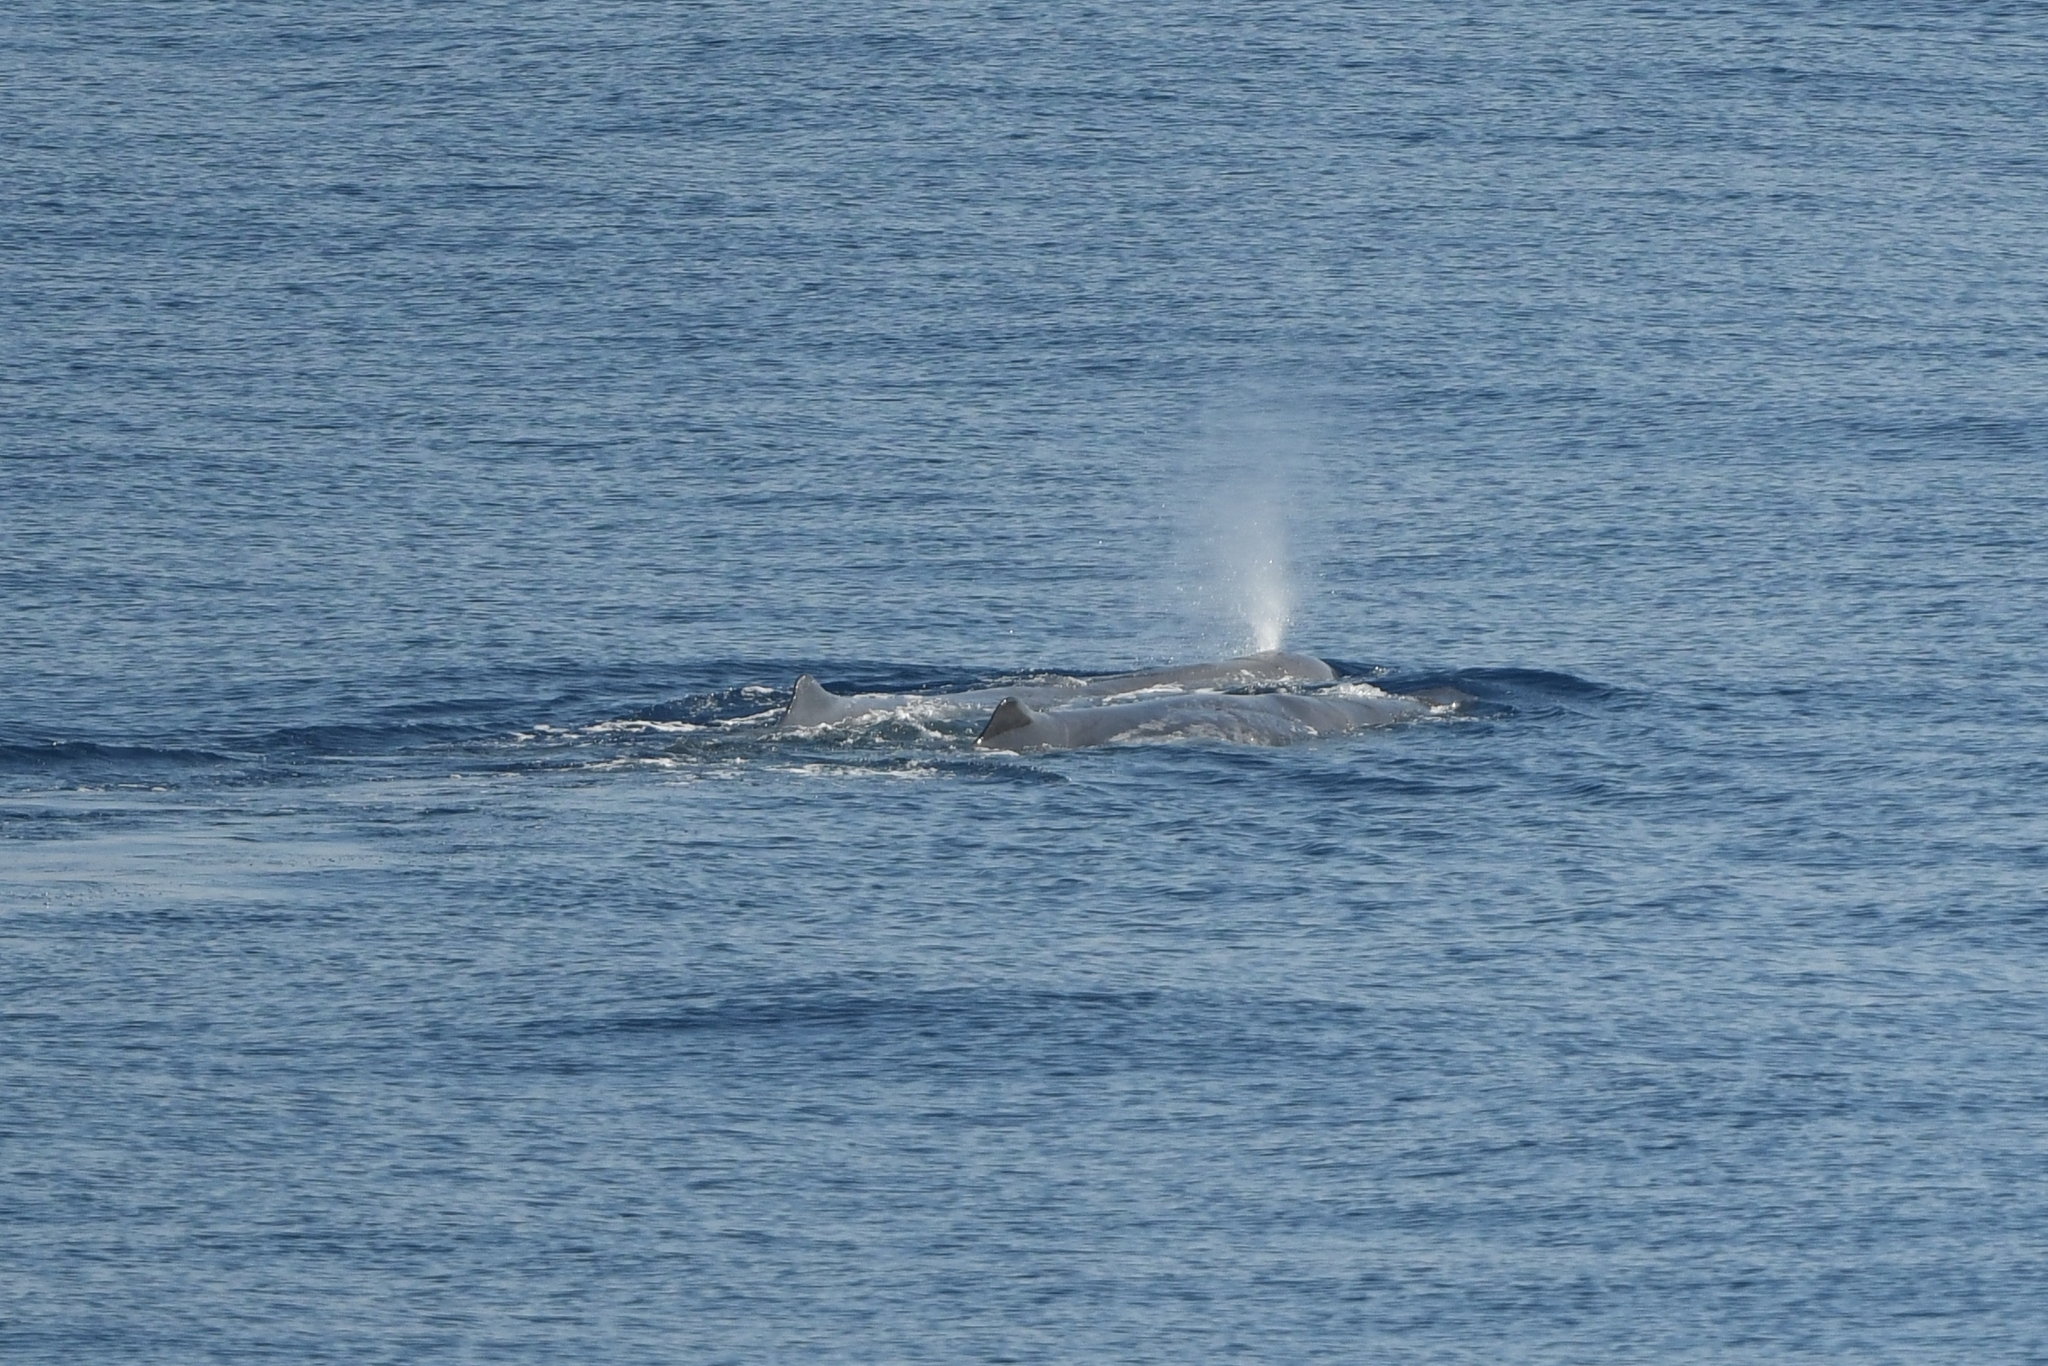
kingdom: Animalia
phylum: Chordata
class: Mammalia
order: Cetacea
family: Physeteridae
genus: Physeter
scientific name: Physeter macrocephalus
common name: Sperm whale
